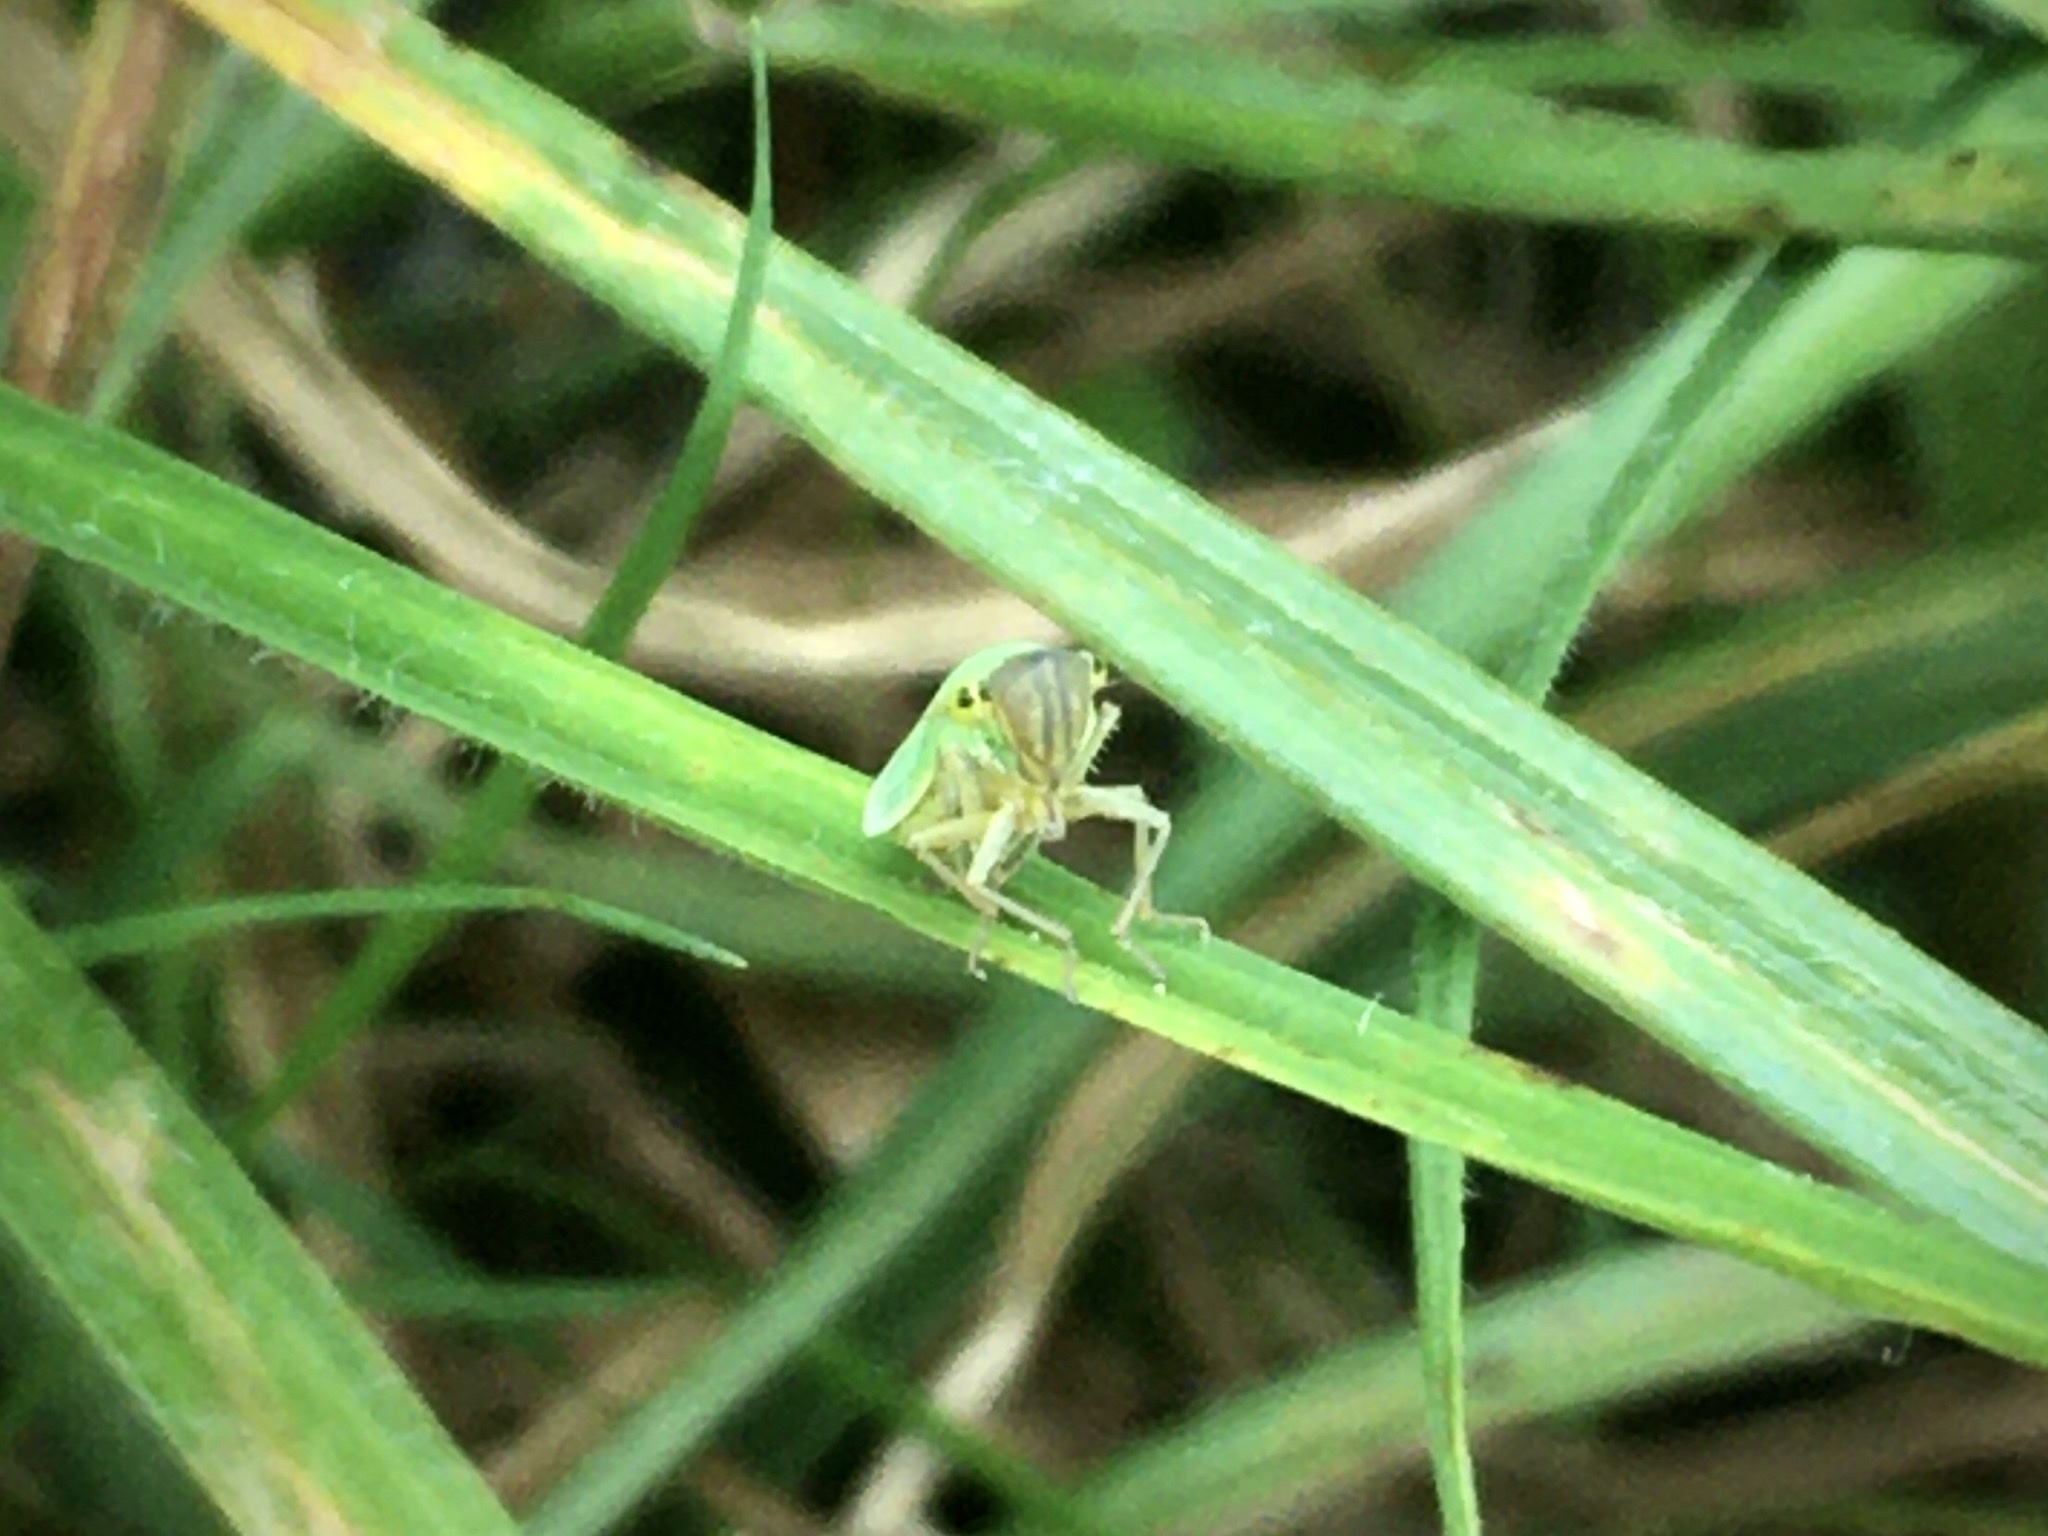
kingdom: Animalia
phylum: Arthropoda
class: Insecta
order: Hemiptera
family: Cicadellidae
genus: Cicadella
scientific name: Cicadella viridis
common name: Leafhopper
